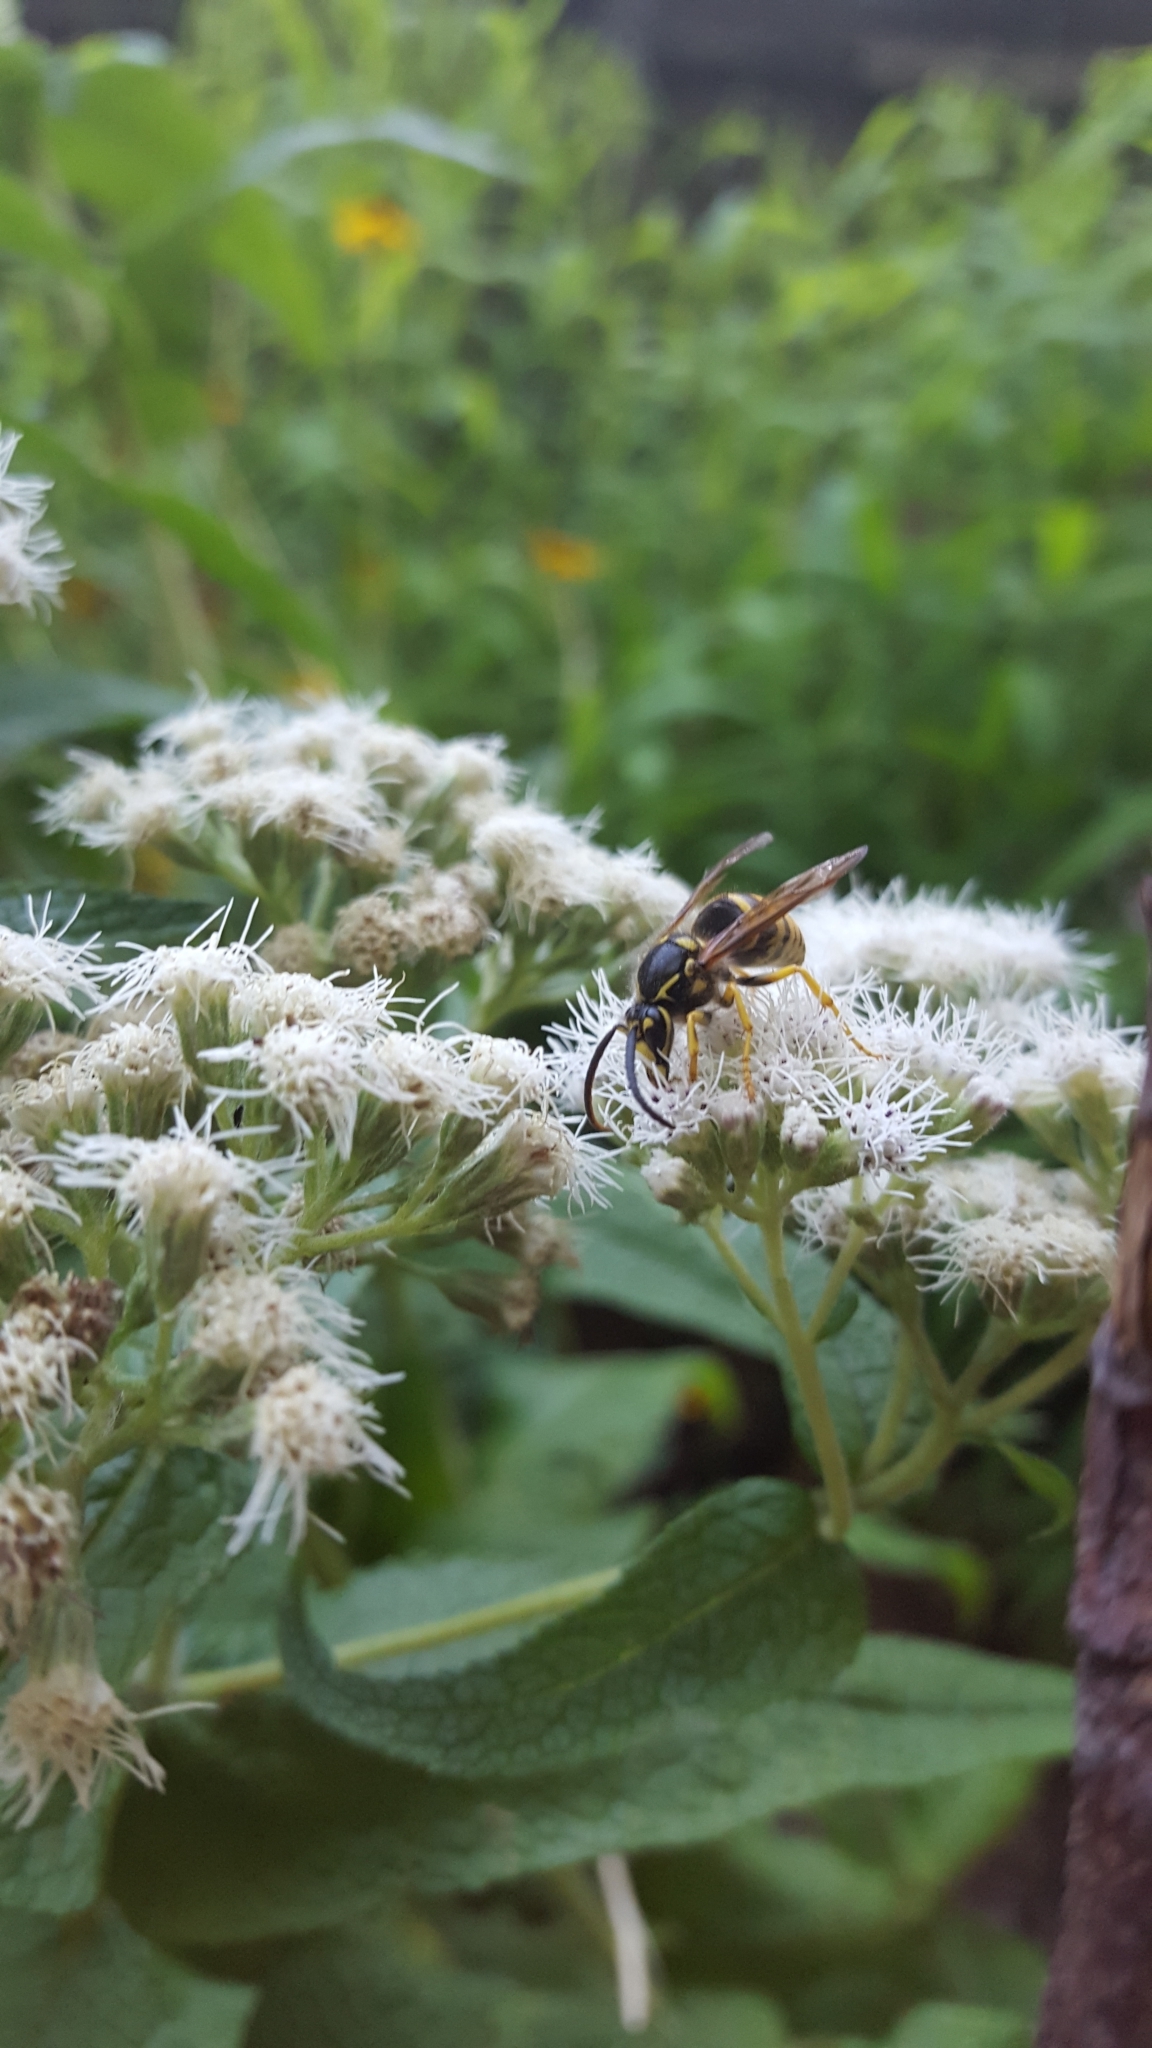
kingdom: Animalia
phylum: Arthropoda
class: Insecta
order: Hymenoptera
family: Vespidae
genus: Dolichovespula
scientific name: Dolichovespula arenaria
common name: Aerial yellowjacket
